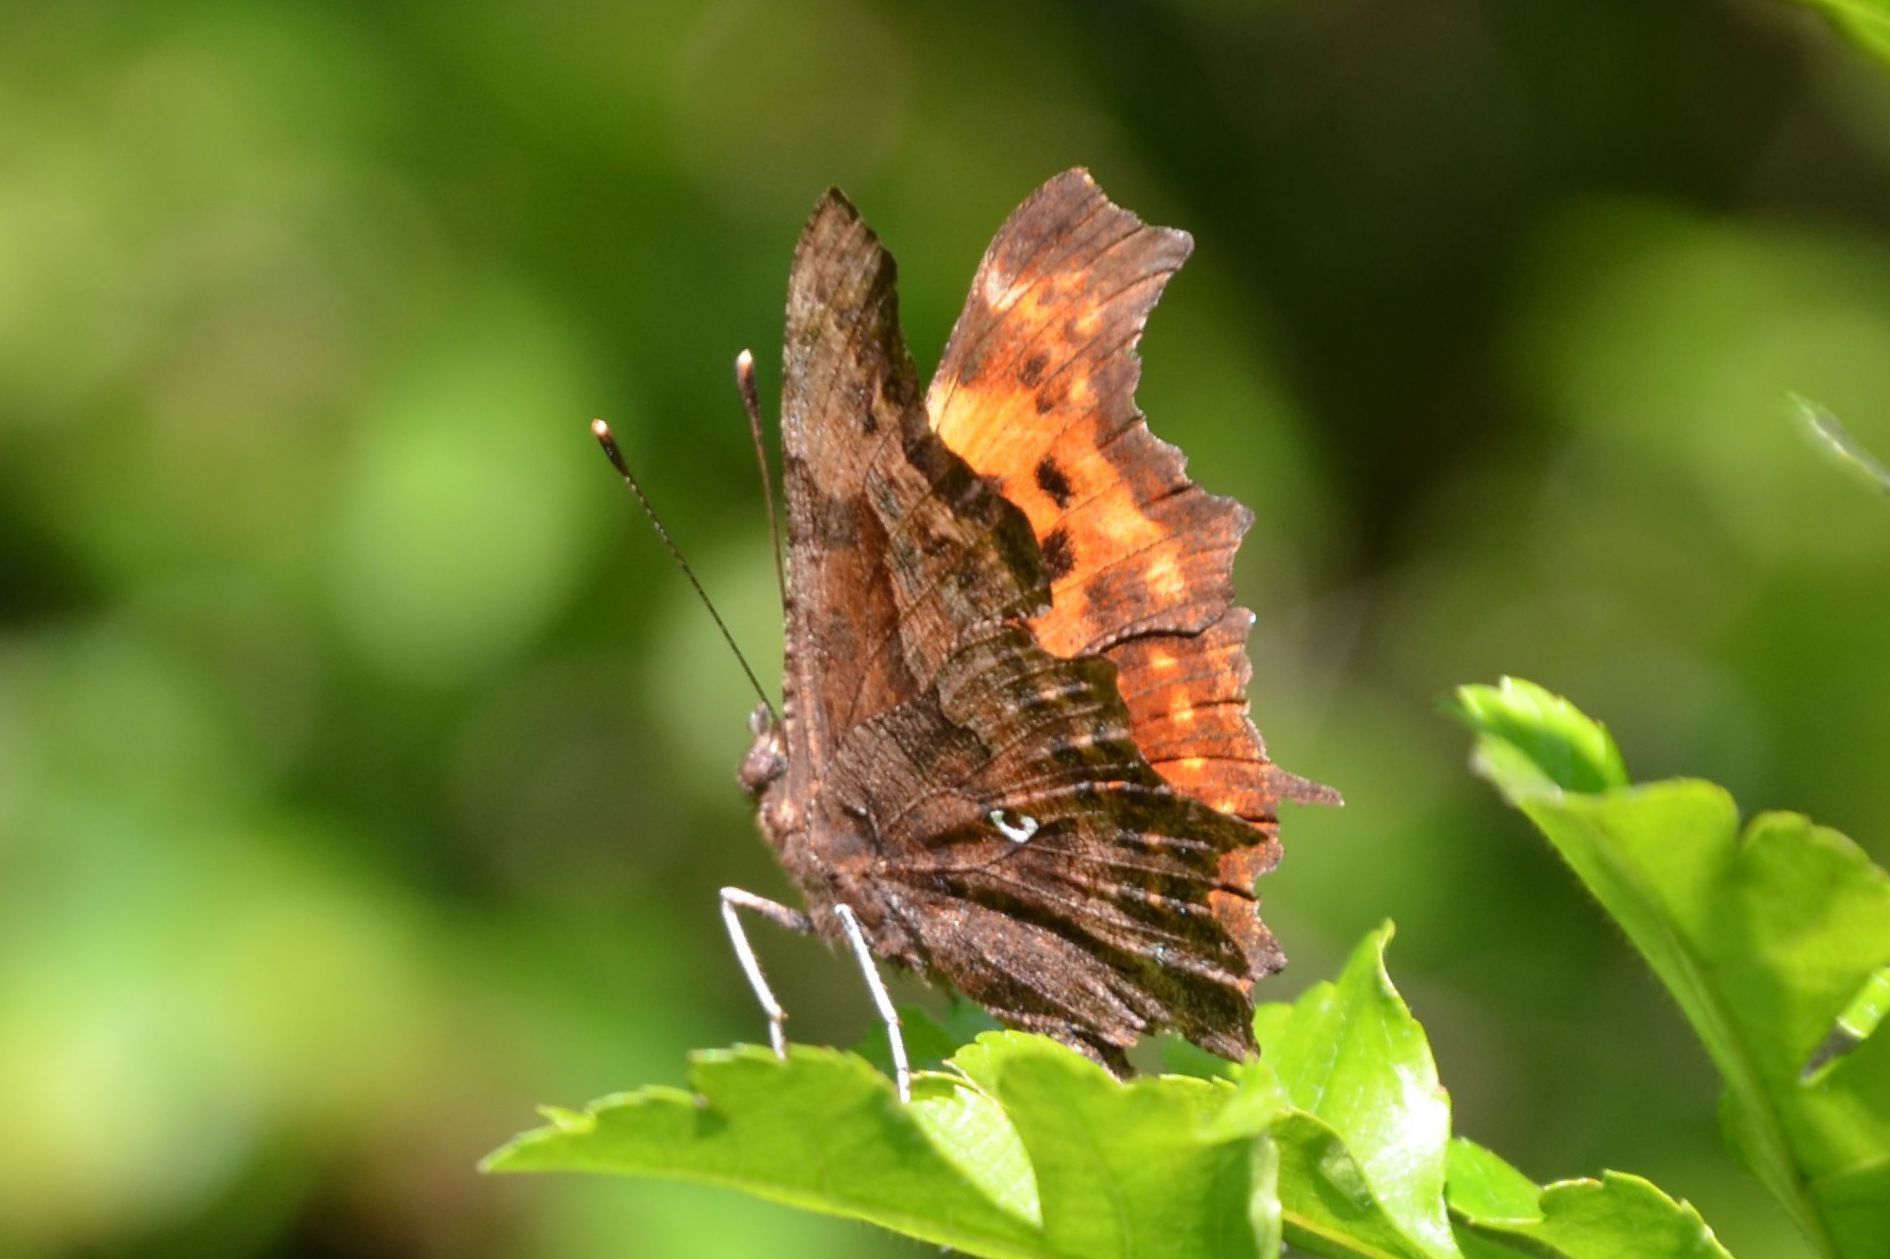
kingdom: Animalia
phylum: Arthropoda
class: Insecta
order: Lepidoptera
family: Nymphalidae
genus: Polygonia
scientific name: Polygonia c-album
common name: Comma
